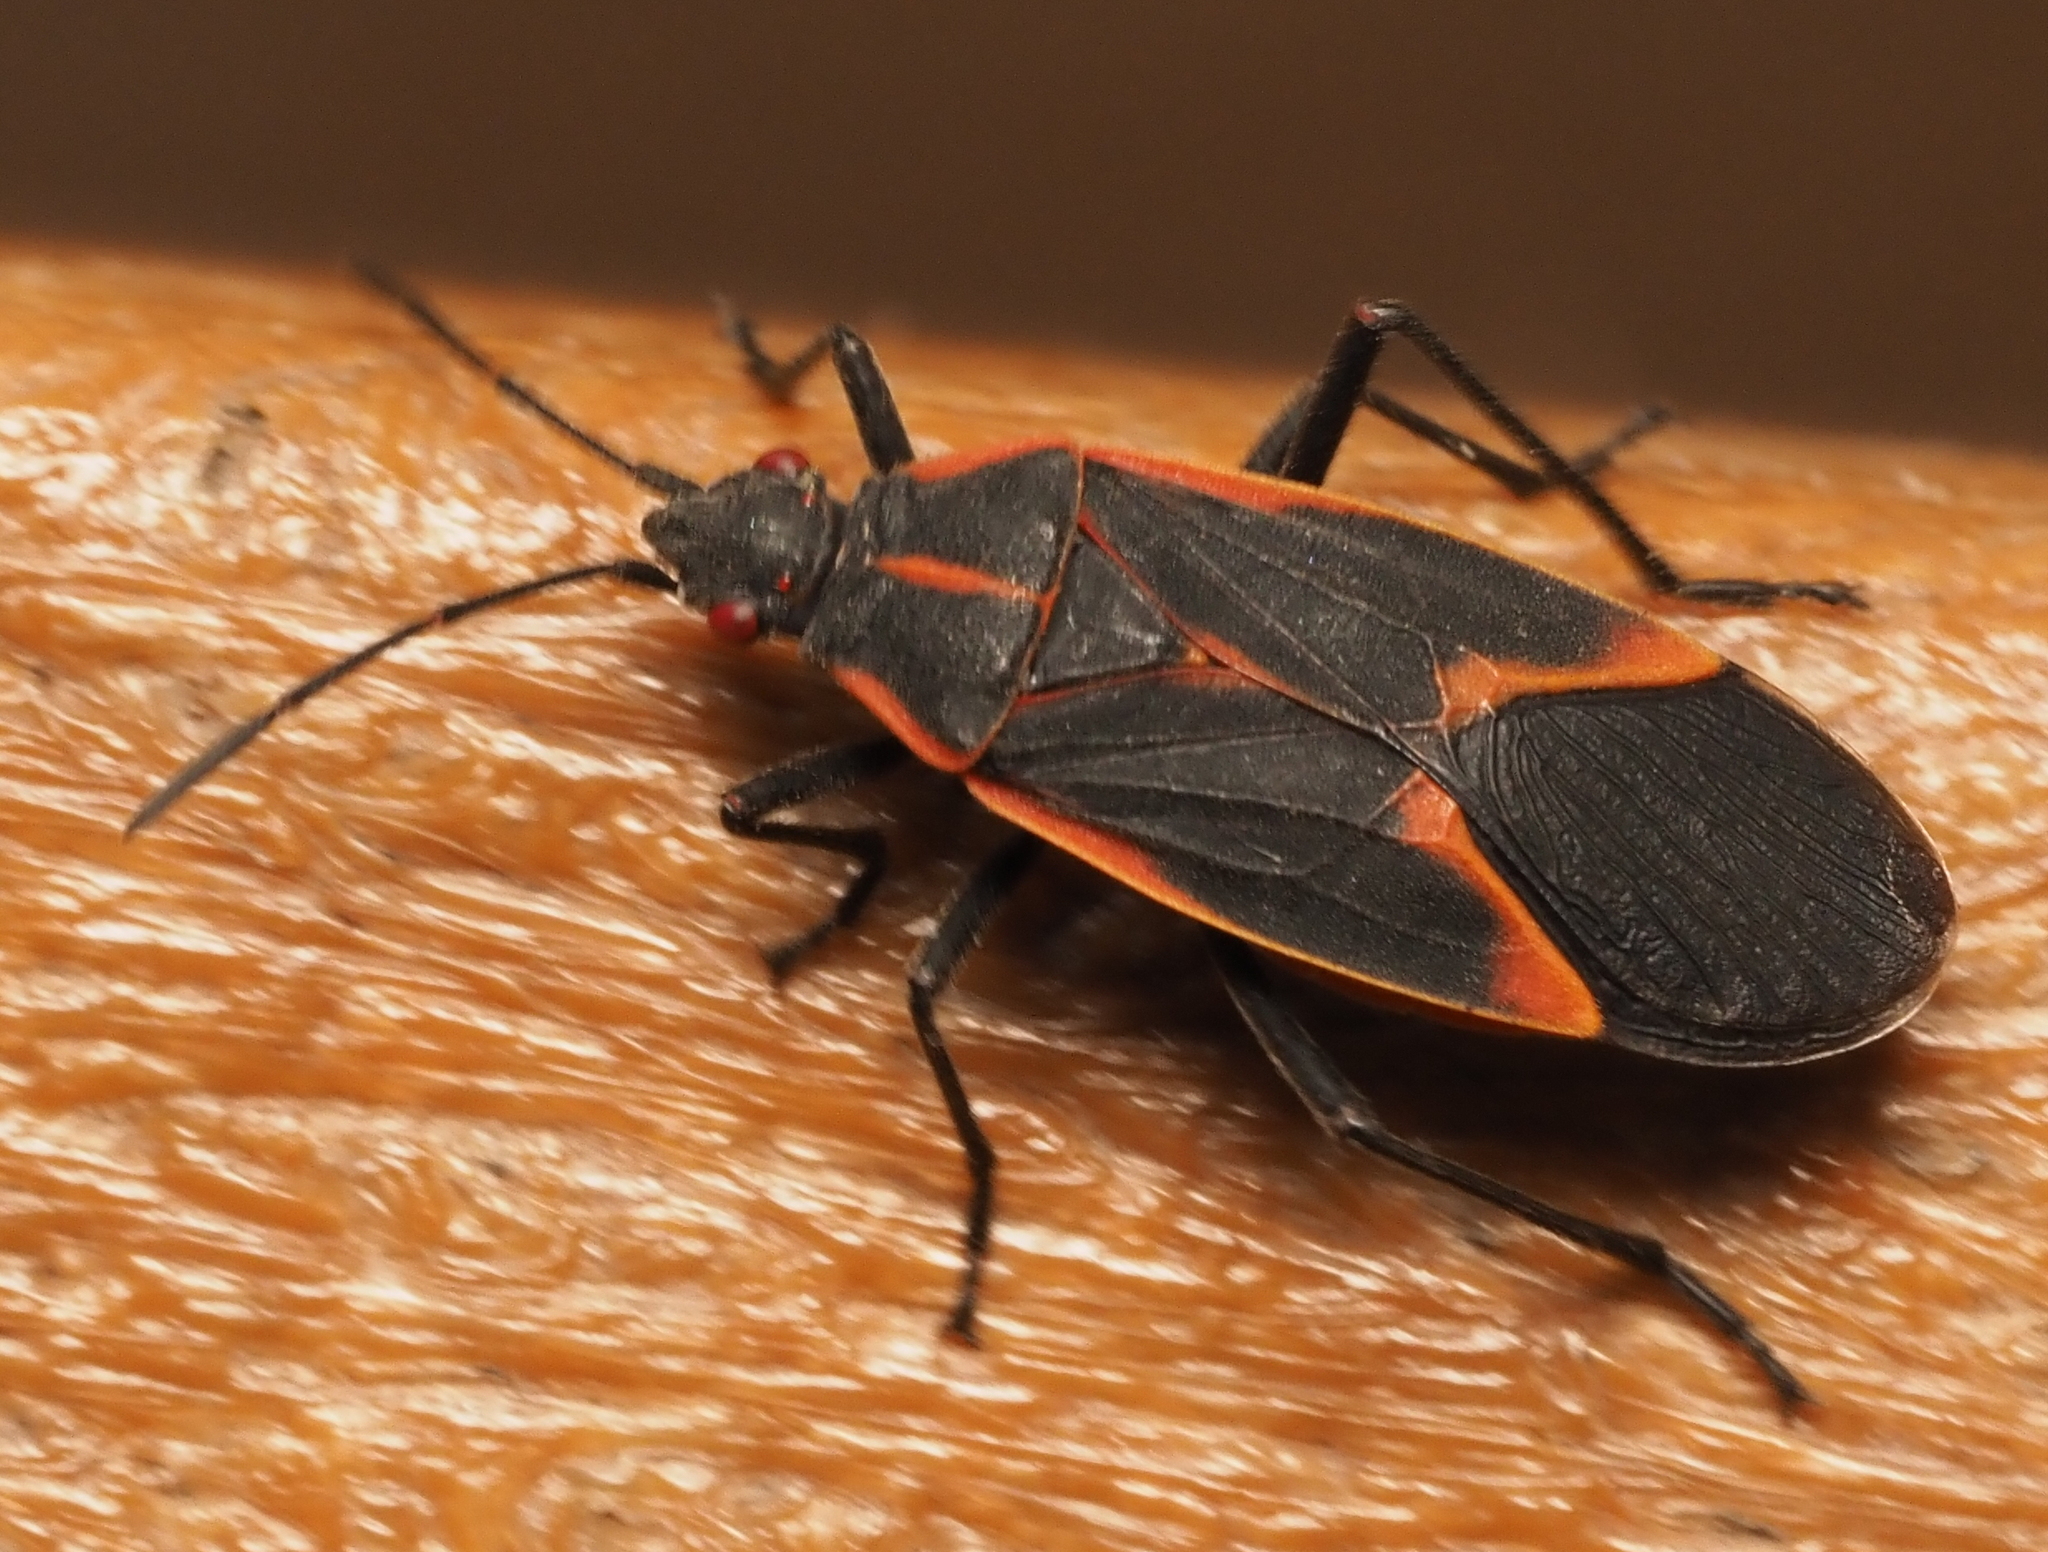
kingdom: Animalia
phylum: Arthropoda
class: Insecta
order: Hemiptera
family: Rhopalidae
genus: Boisea
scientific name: Boisea trivittata
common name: Boxelder bug
